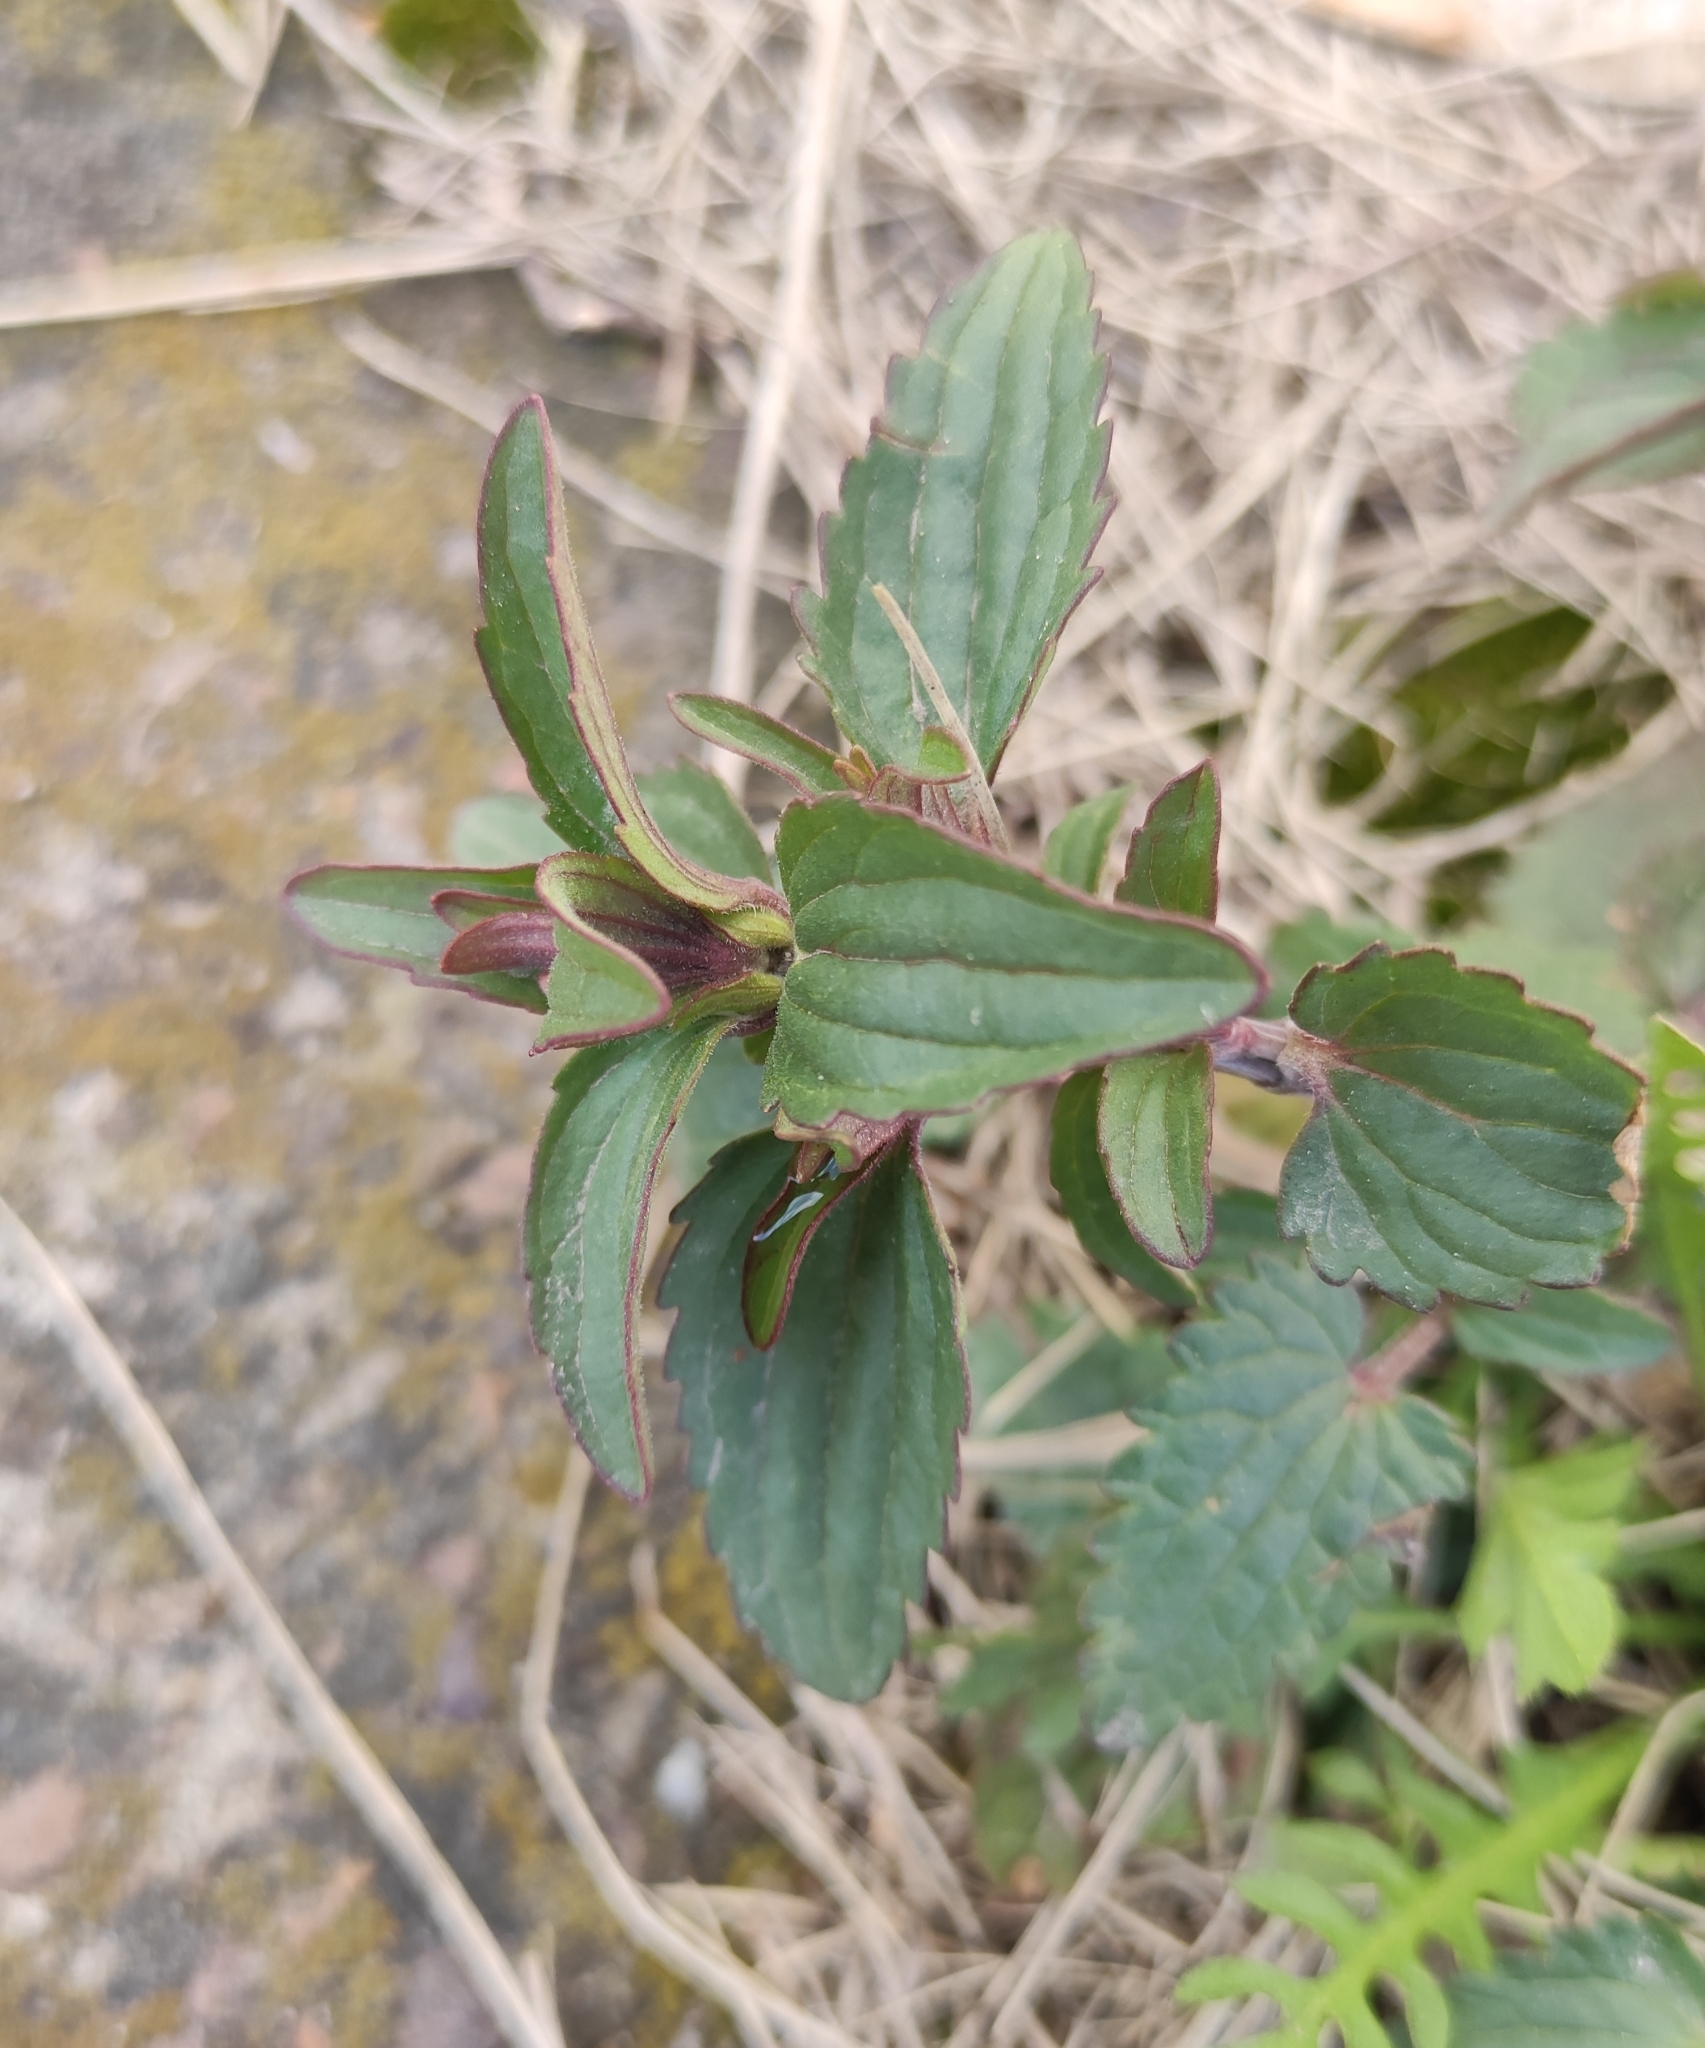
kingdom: Plantae
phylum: Tracheophyta
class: Magnoliopsida
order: Lamiales
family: Lamiaceae
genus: Dracocephalum
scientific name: Dracocephalum nutans
